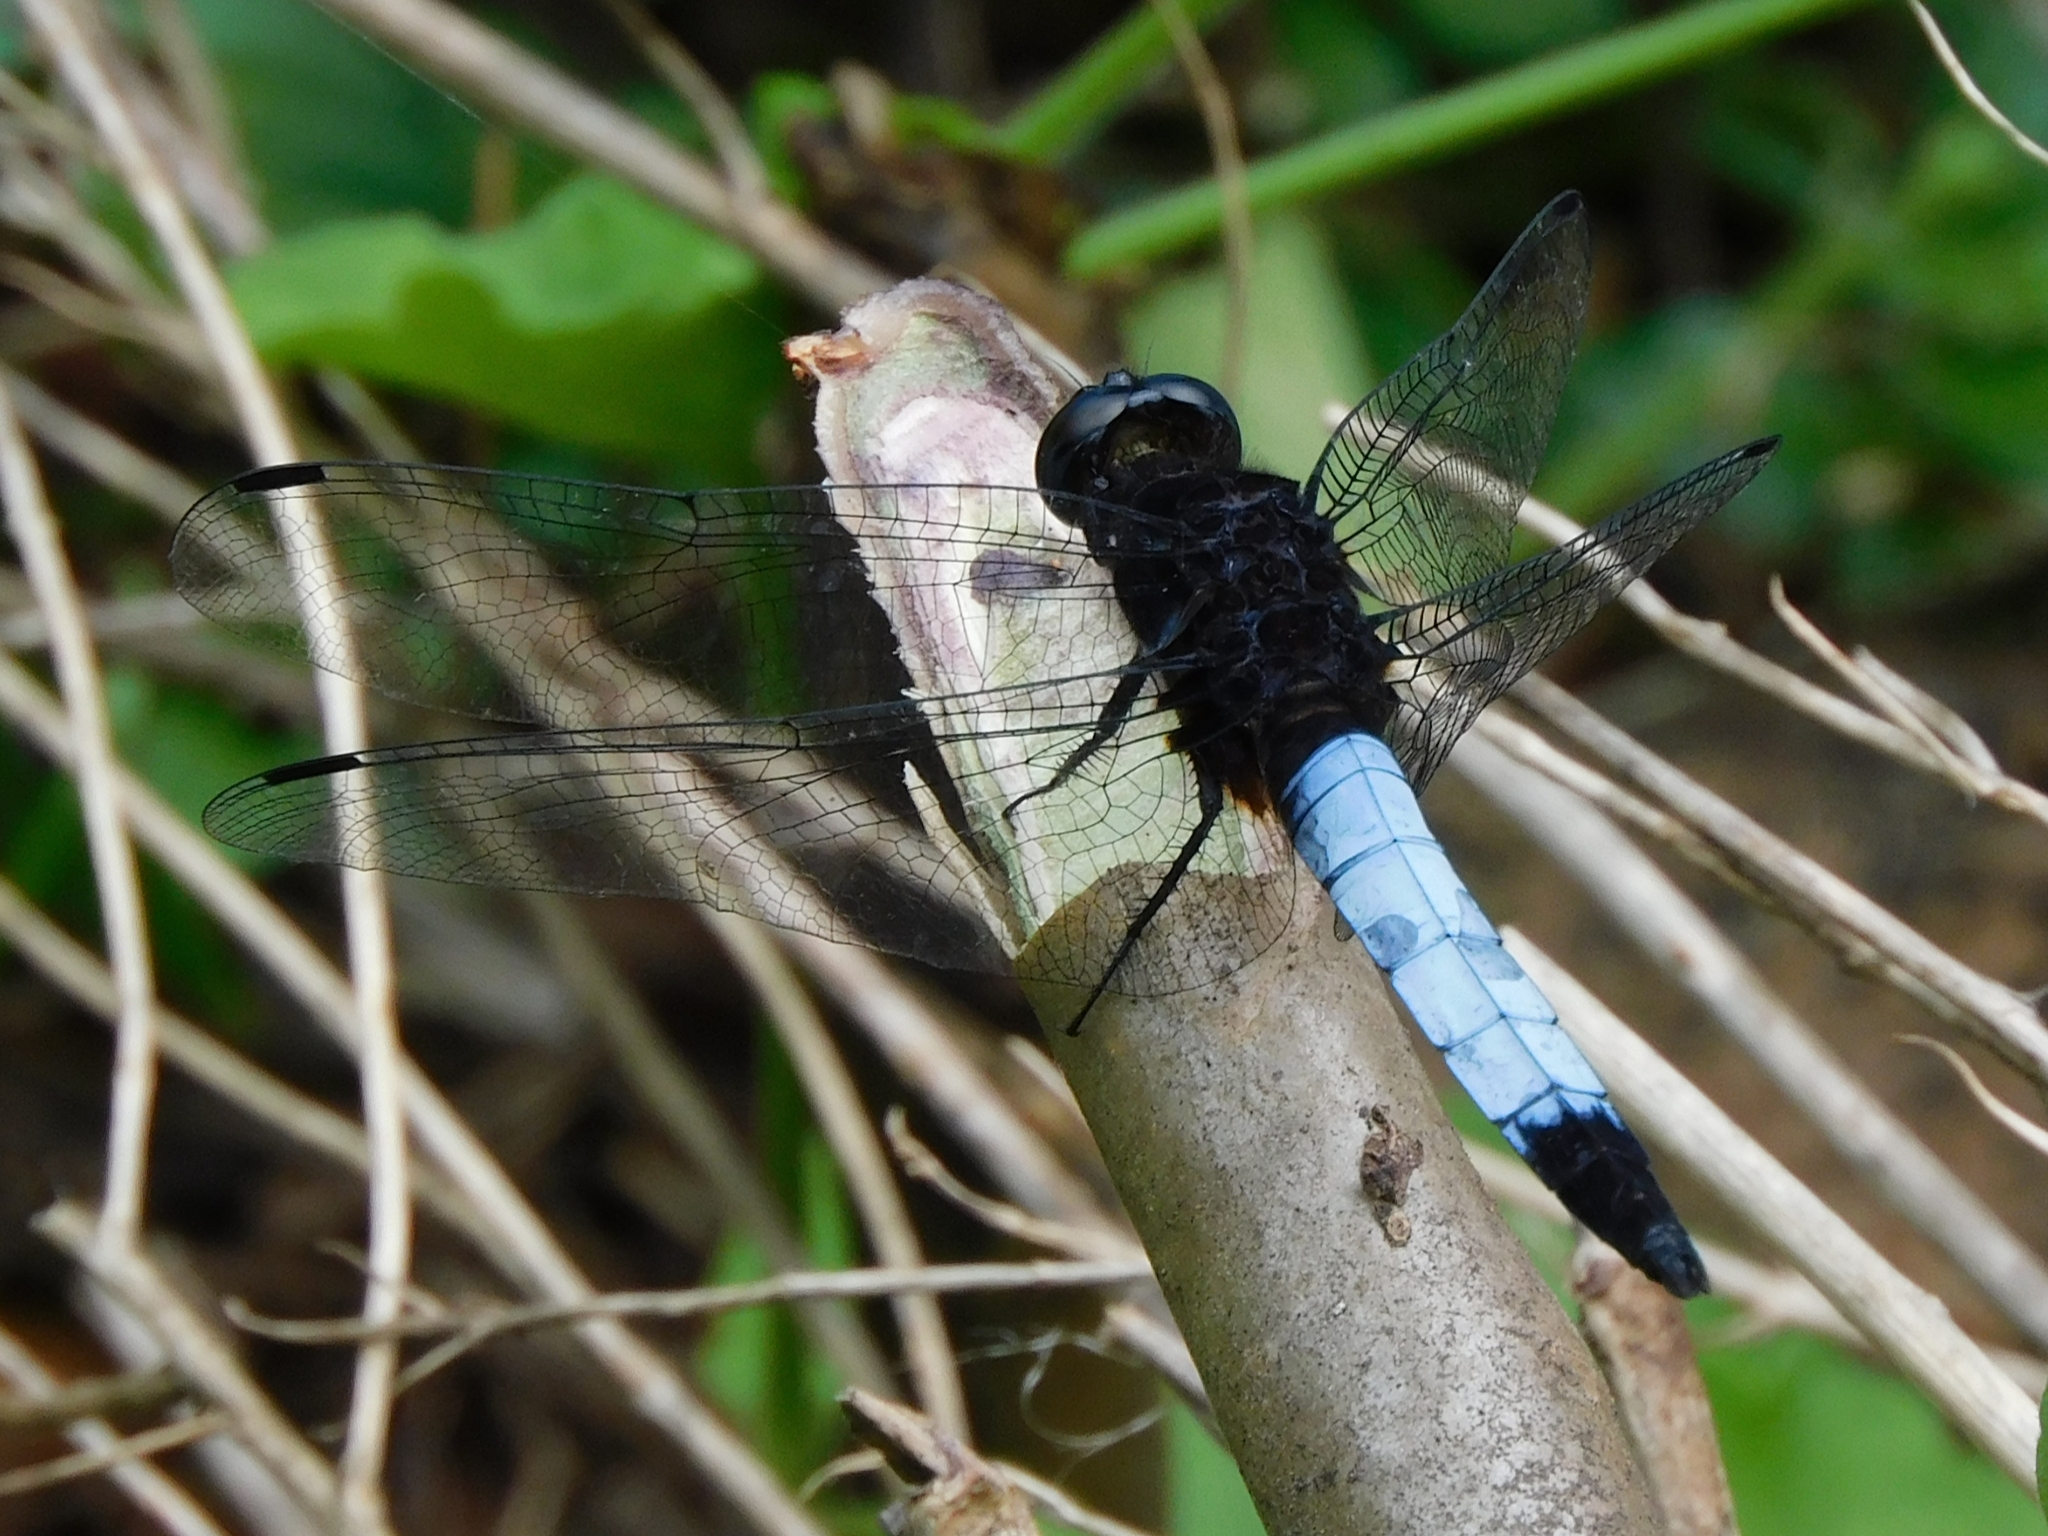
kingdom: Animalia
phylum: Arthropoda
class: Insecta
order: Odonata
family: Libellulidae
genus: Orthetrum
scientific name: Orthetrum triangulare
